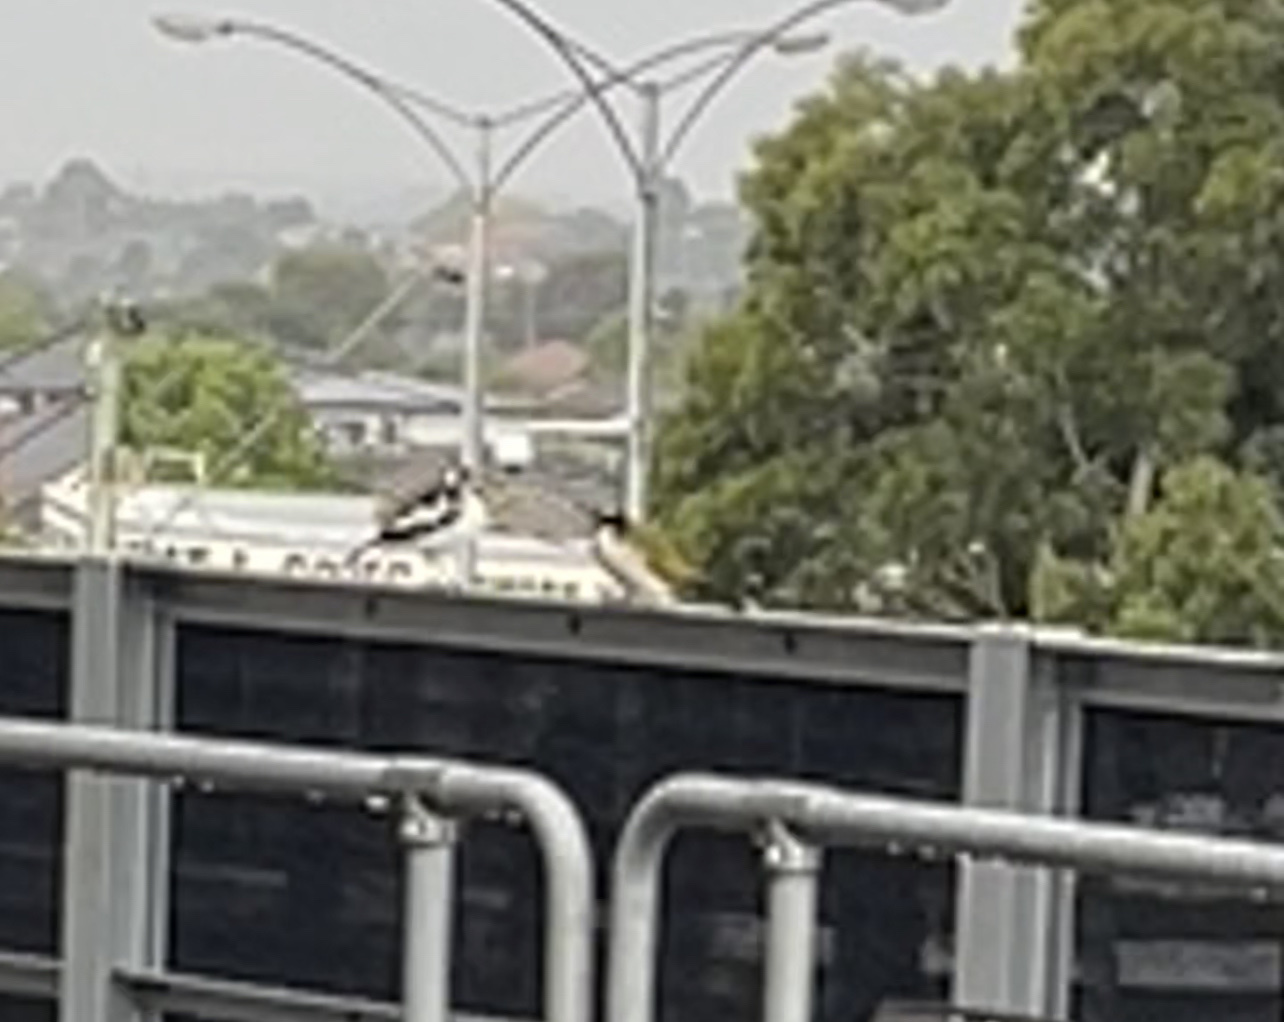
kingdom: Animalia
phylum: Chordata
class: Aves
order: Passeriformes
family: Meliphagidae
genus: Entomyzon
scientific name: Entomyzon cyanotis
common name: Blue-faced honeyeater
